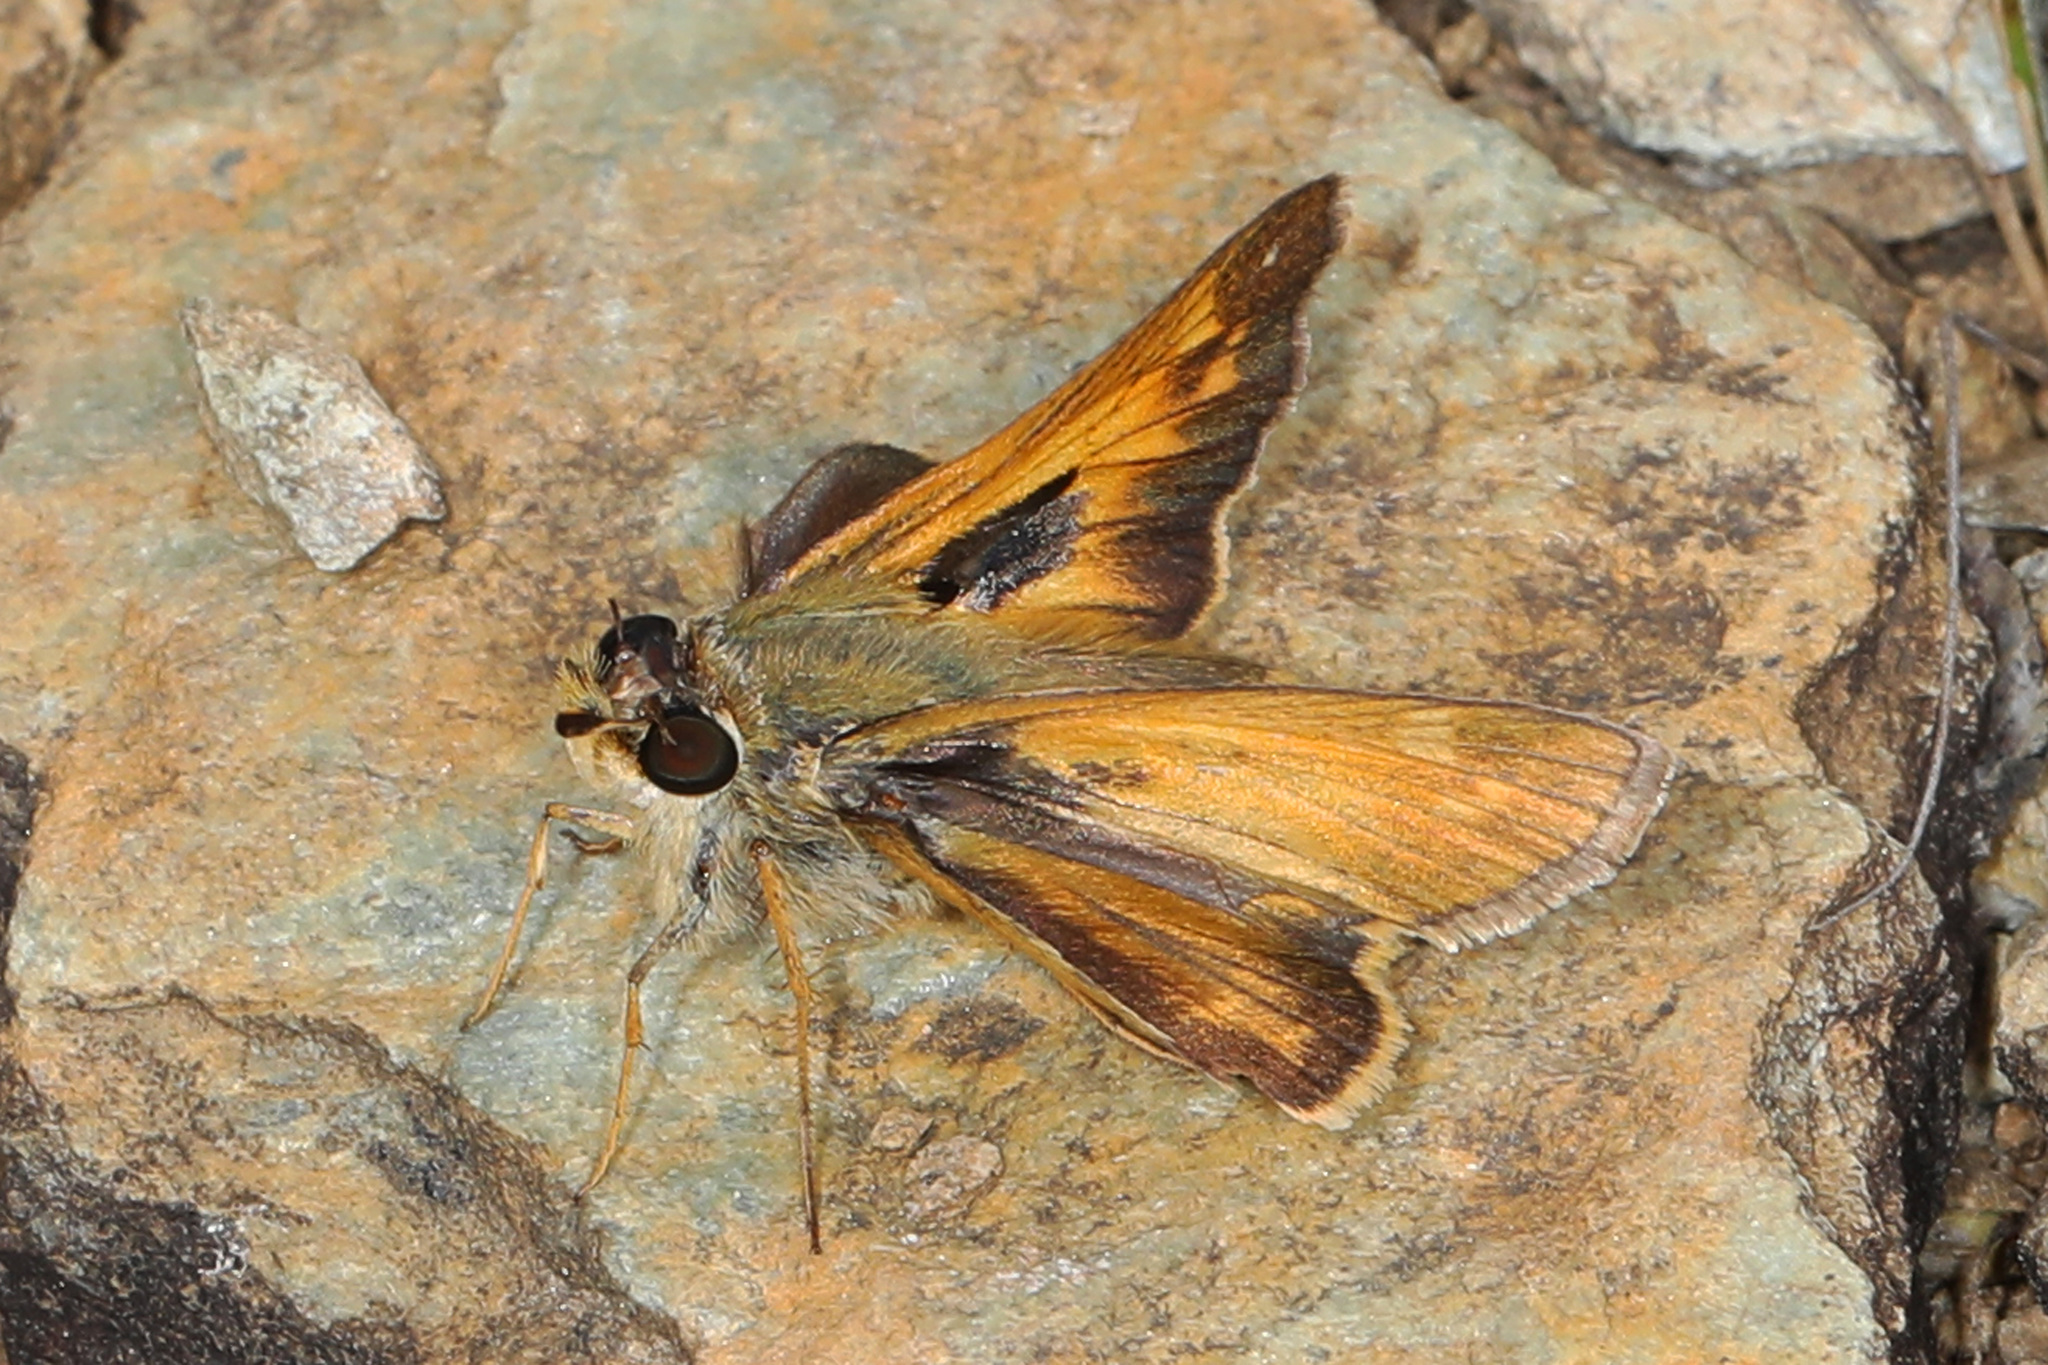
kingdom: Animalia
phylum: Arthropoda
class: Insecta
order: Lepidoptera
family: Hesperiidae
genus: Atalopedes
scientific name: Atalopedes
